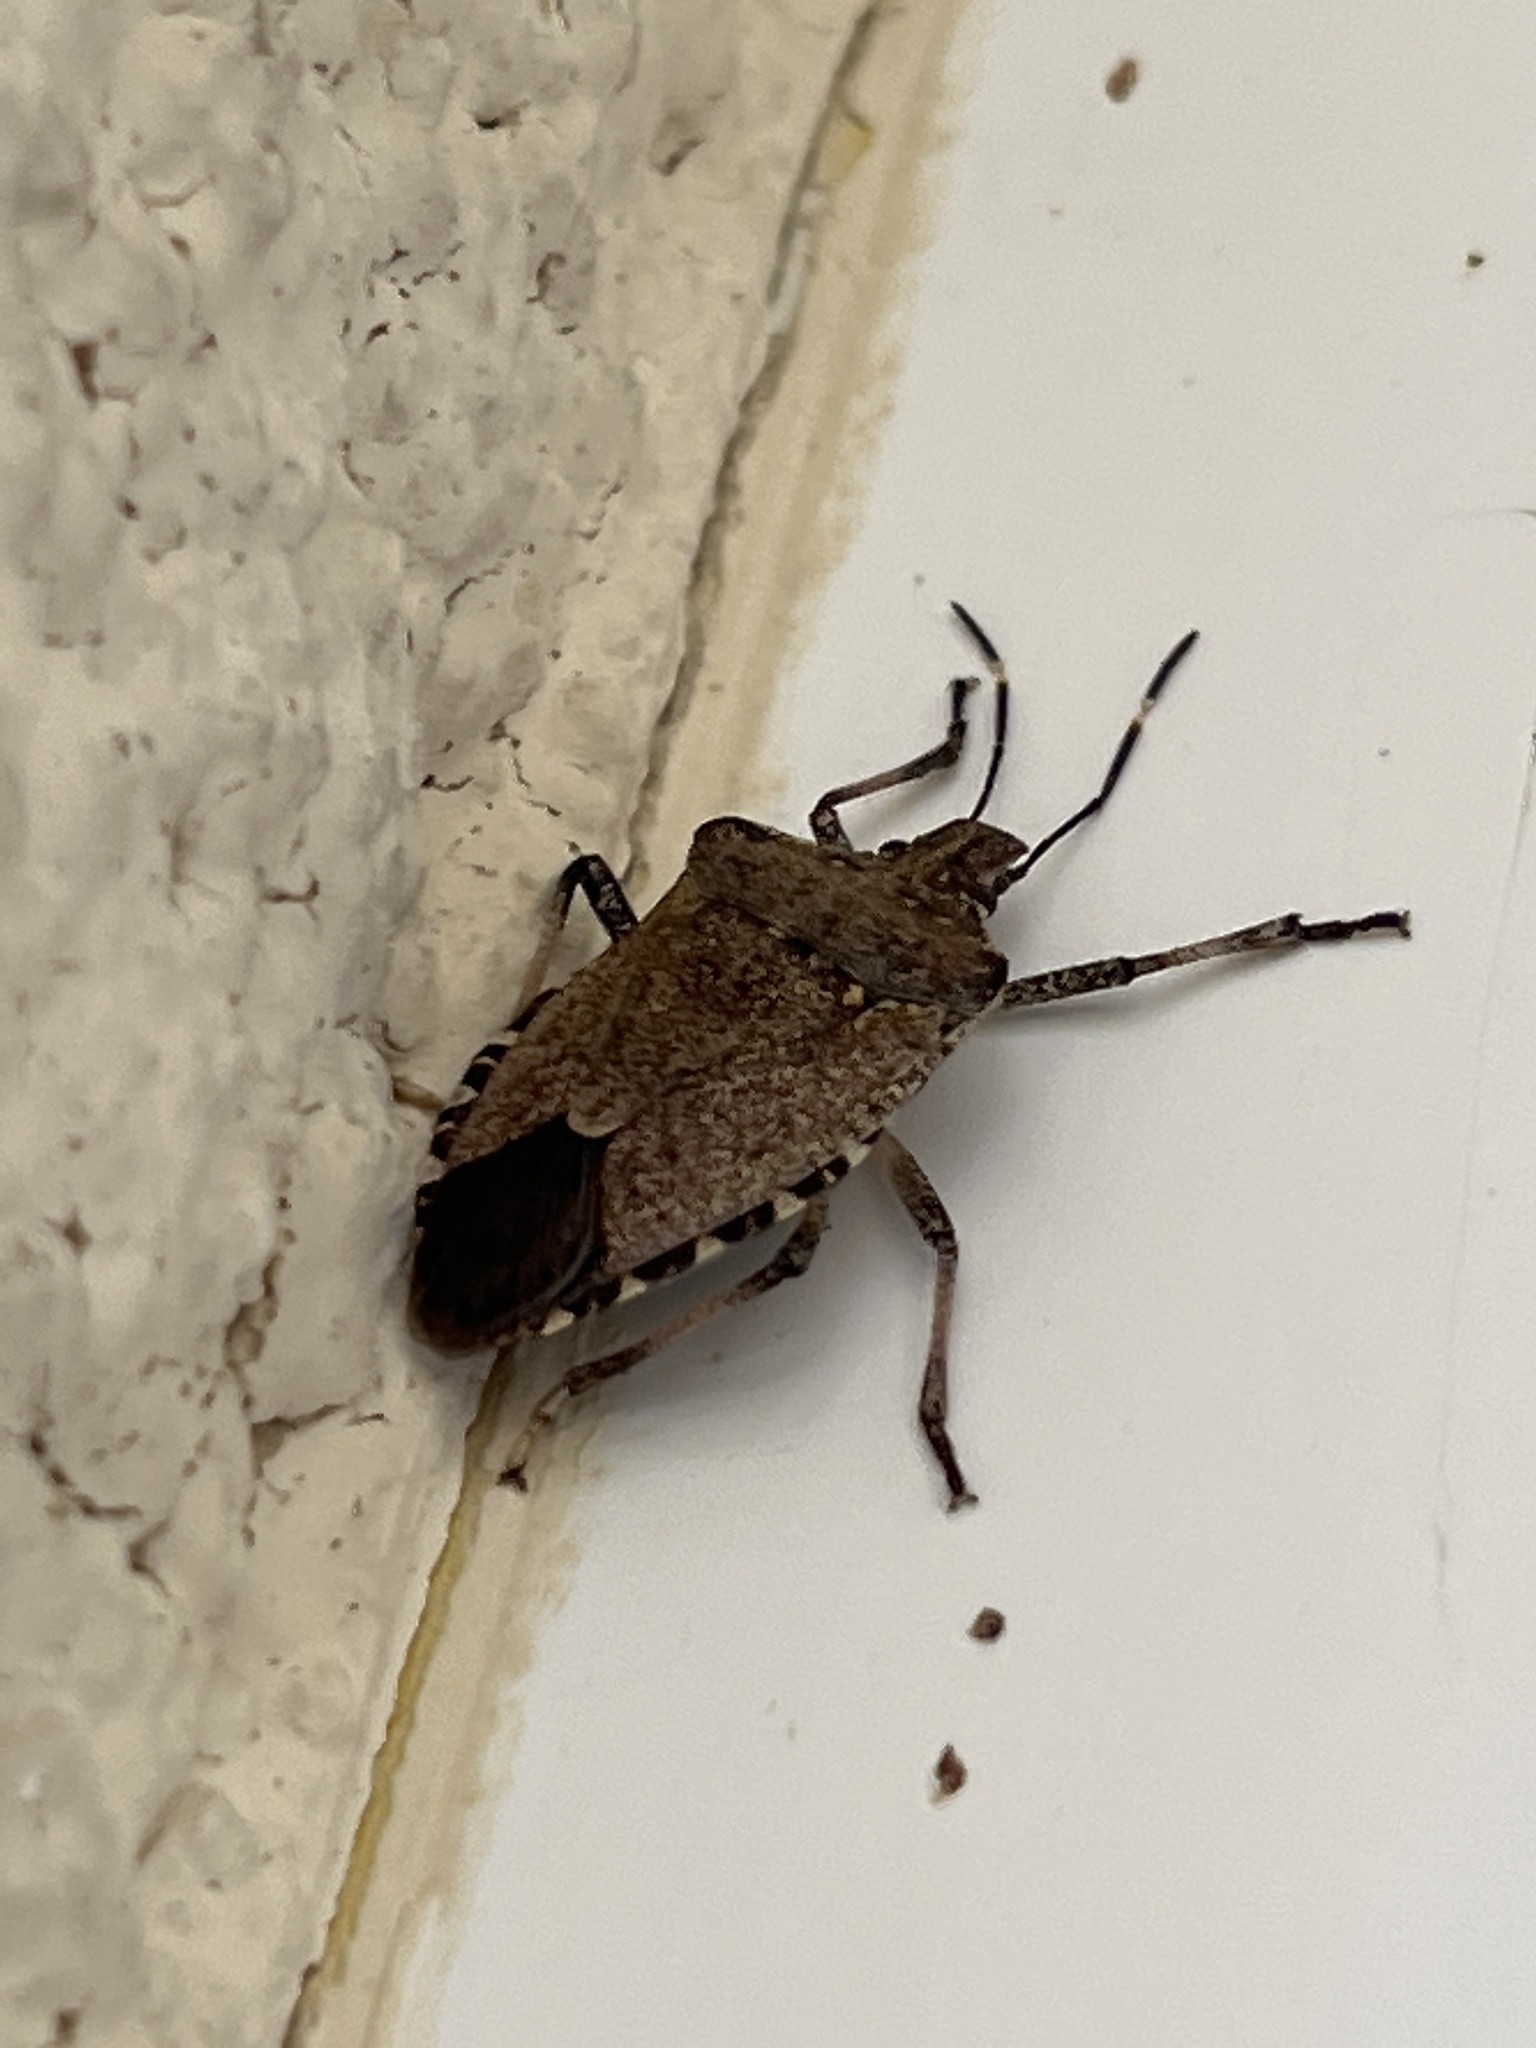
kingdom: Animalia
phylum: Arthropoda
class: Insecta
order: Hemiptera
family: Pentatomidae
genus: Halyomorpha
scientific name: Halyomorpha halys
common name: Brown marmorated stink bug
